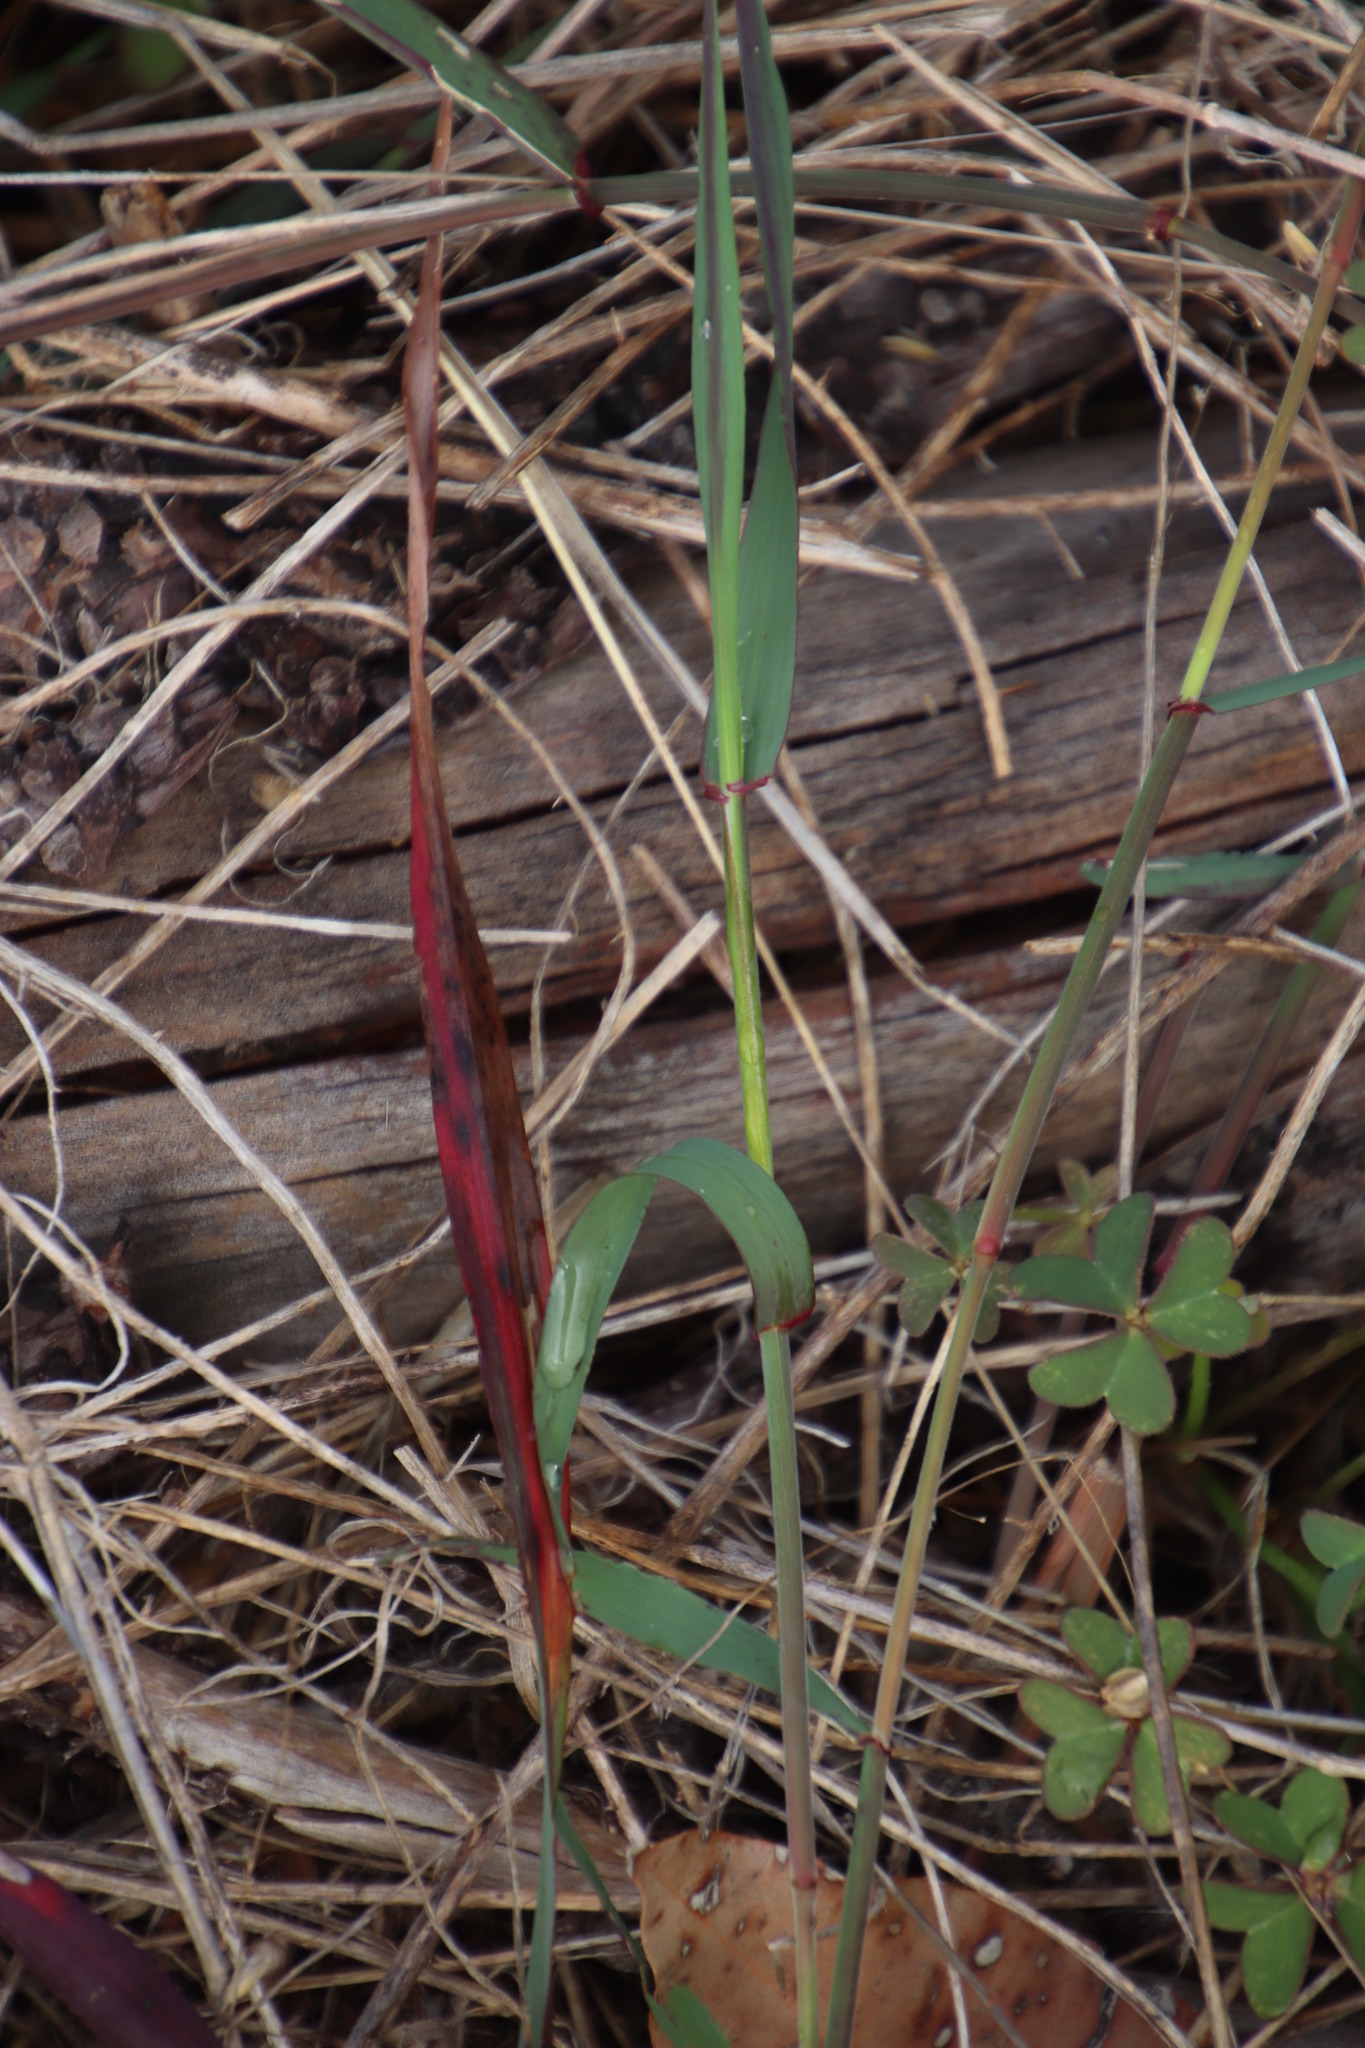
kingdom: Plantae
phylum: Tracheophyta
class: Liliopsida
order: Poales
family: Poaceae
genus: Ehrharta
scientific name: Ehrharta calycina
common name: Perennial veldtgrass
